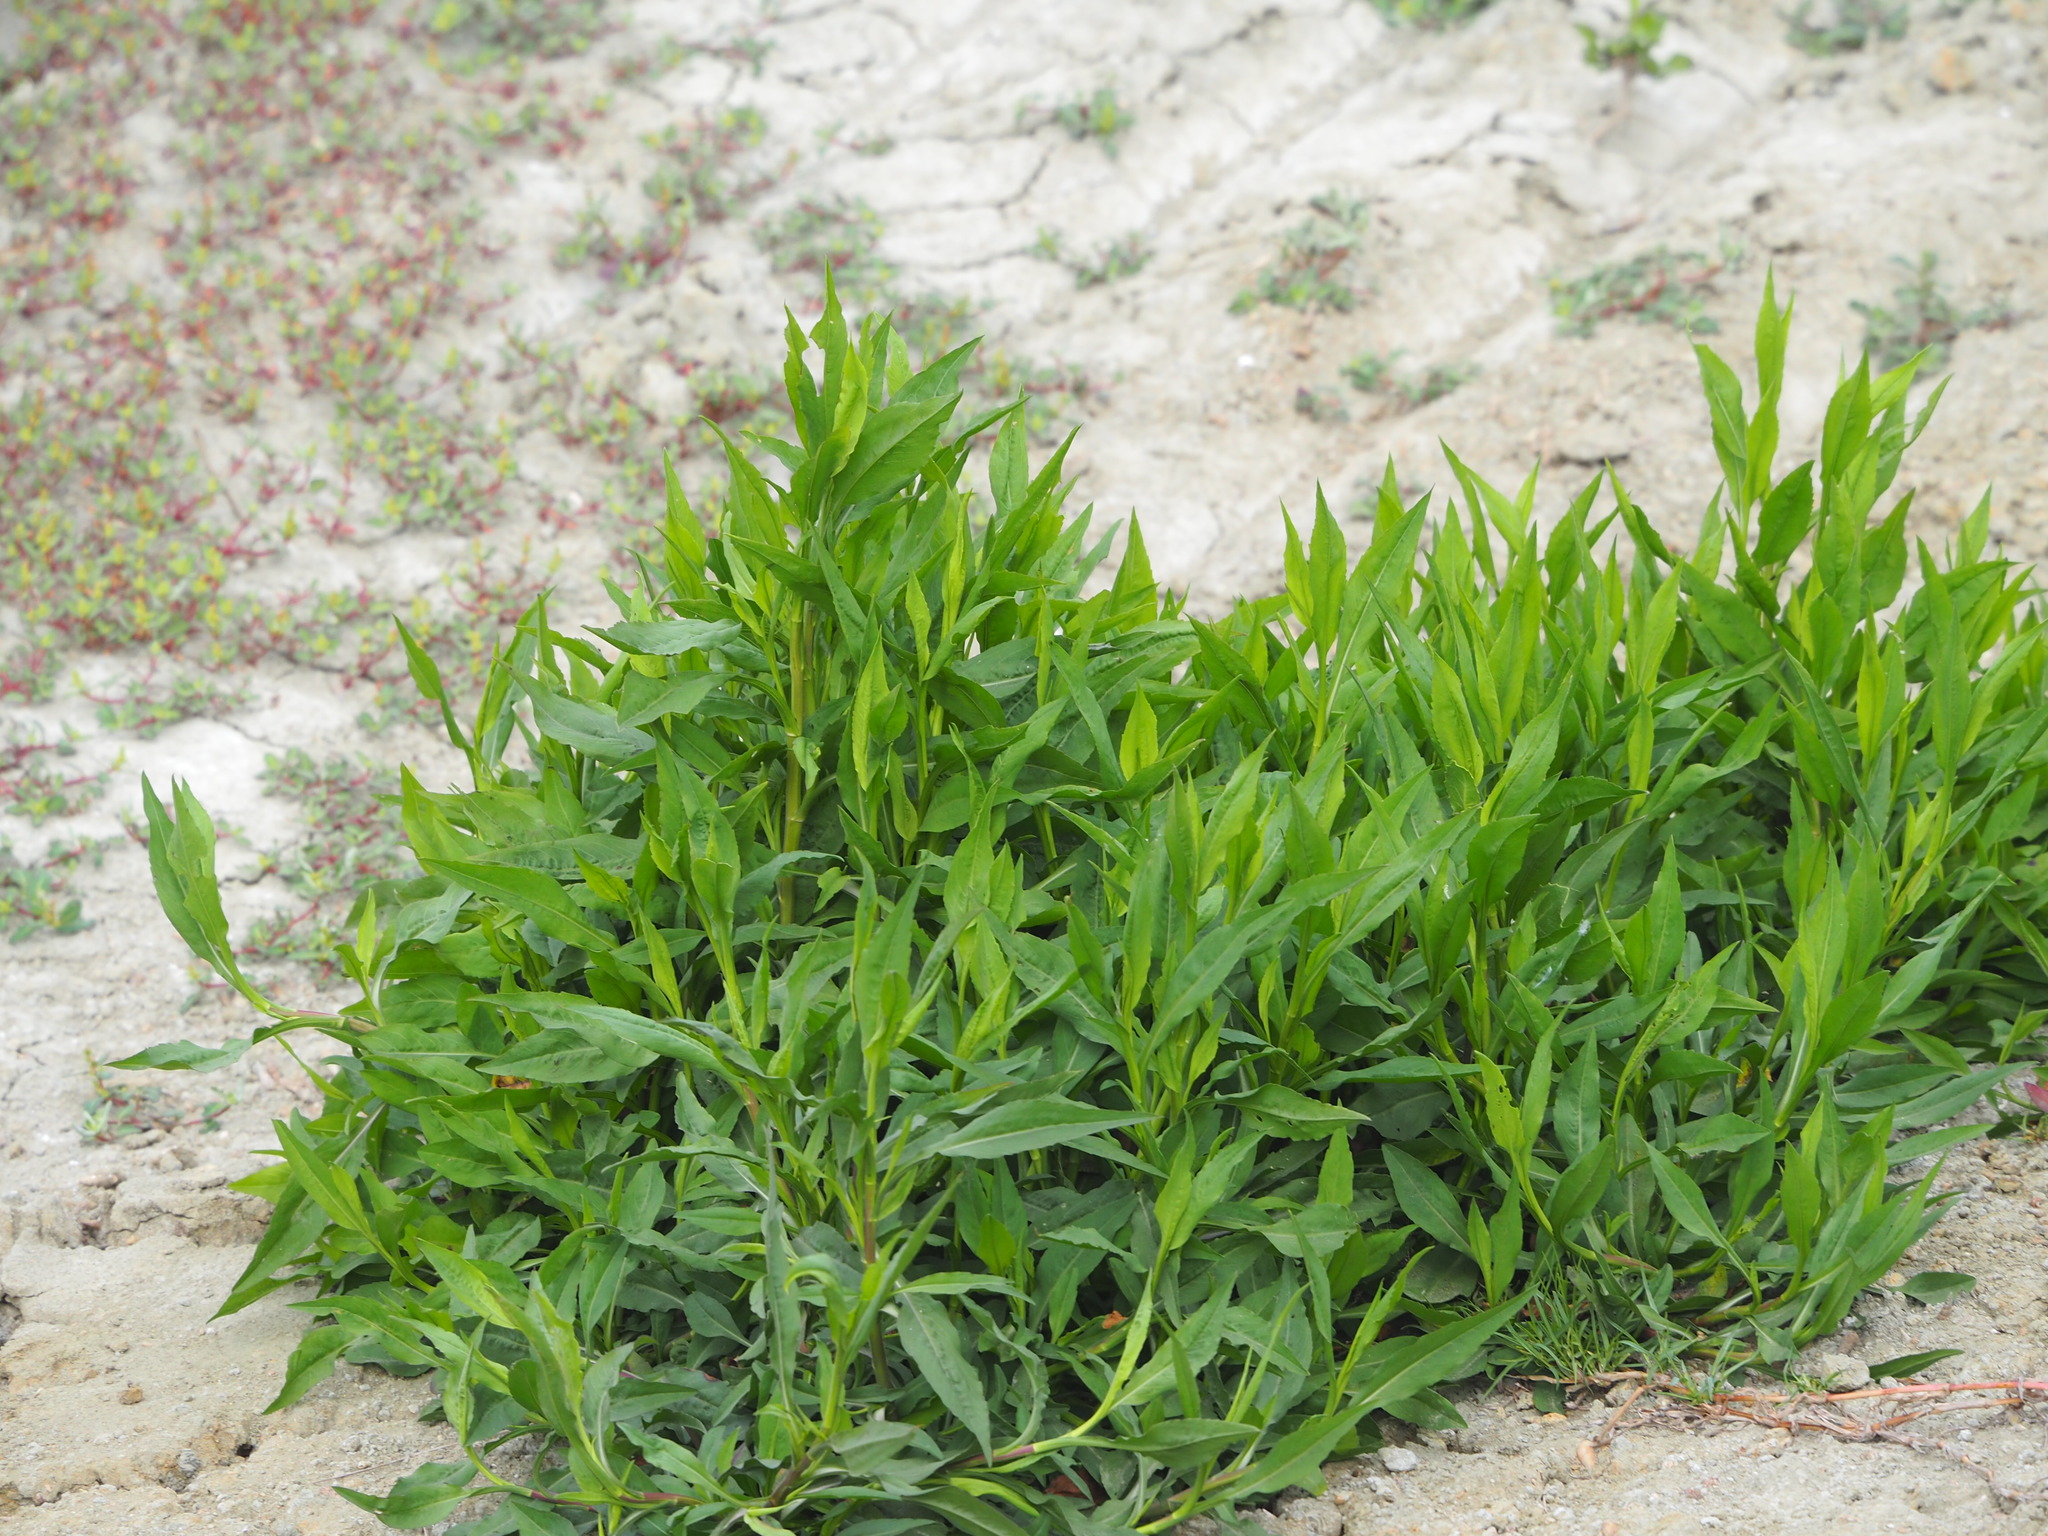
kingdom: Plantae
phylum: Tracheophyta
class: Magnoliopsida
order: Asterales
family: Asteraceae
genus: Symphyotrichum
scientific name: Symphyotrichum subulatum
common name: Annual saltmarsh aster
